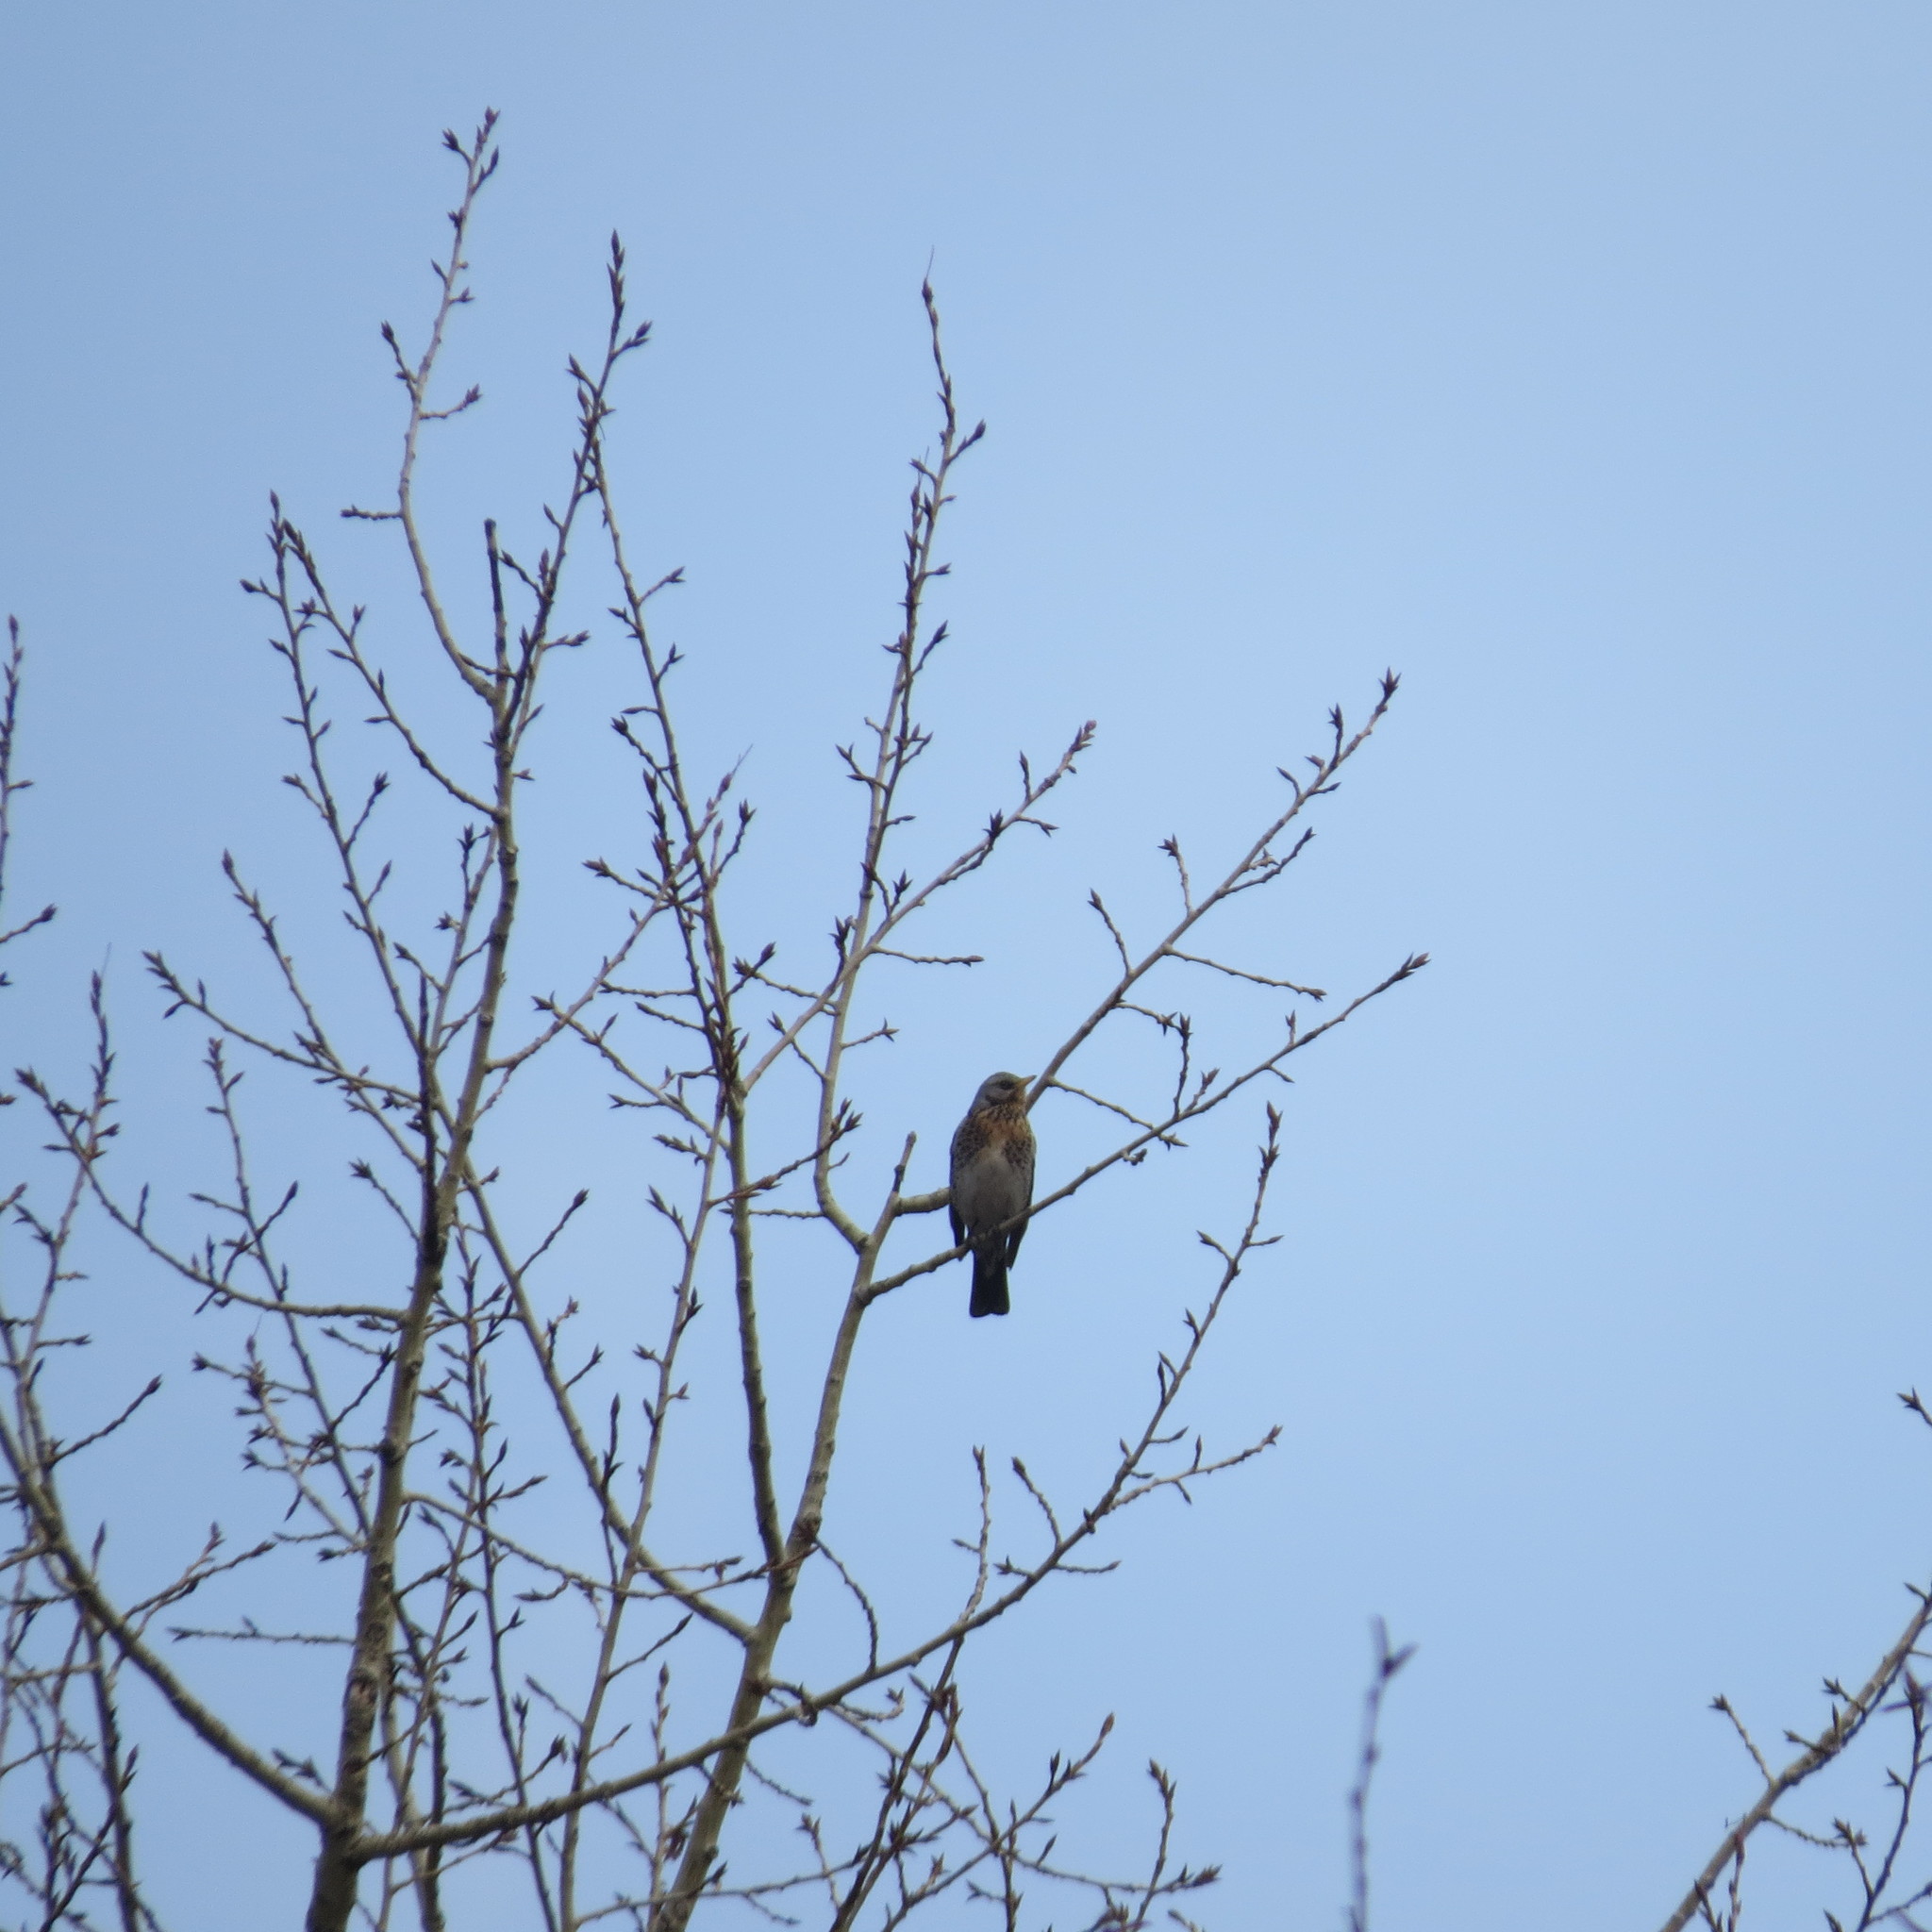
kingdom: Animalia
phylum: Chordata
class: Aves
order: Passeriformes
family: Turdidae
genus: Turdus
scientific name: Turdus pilaris
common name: Fieldfare
